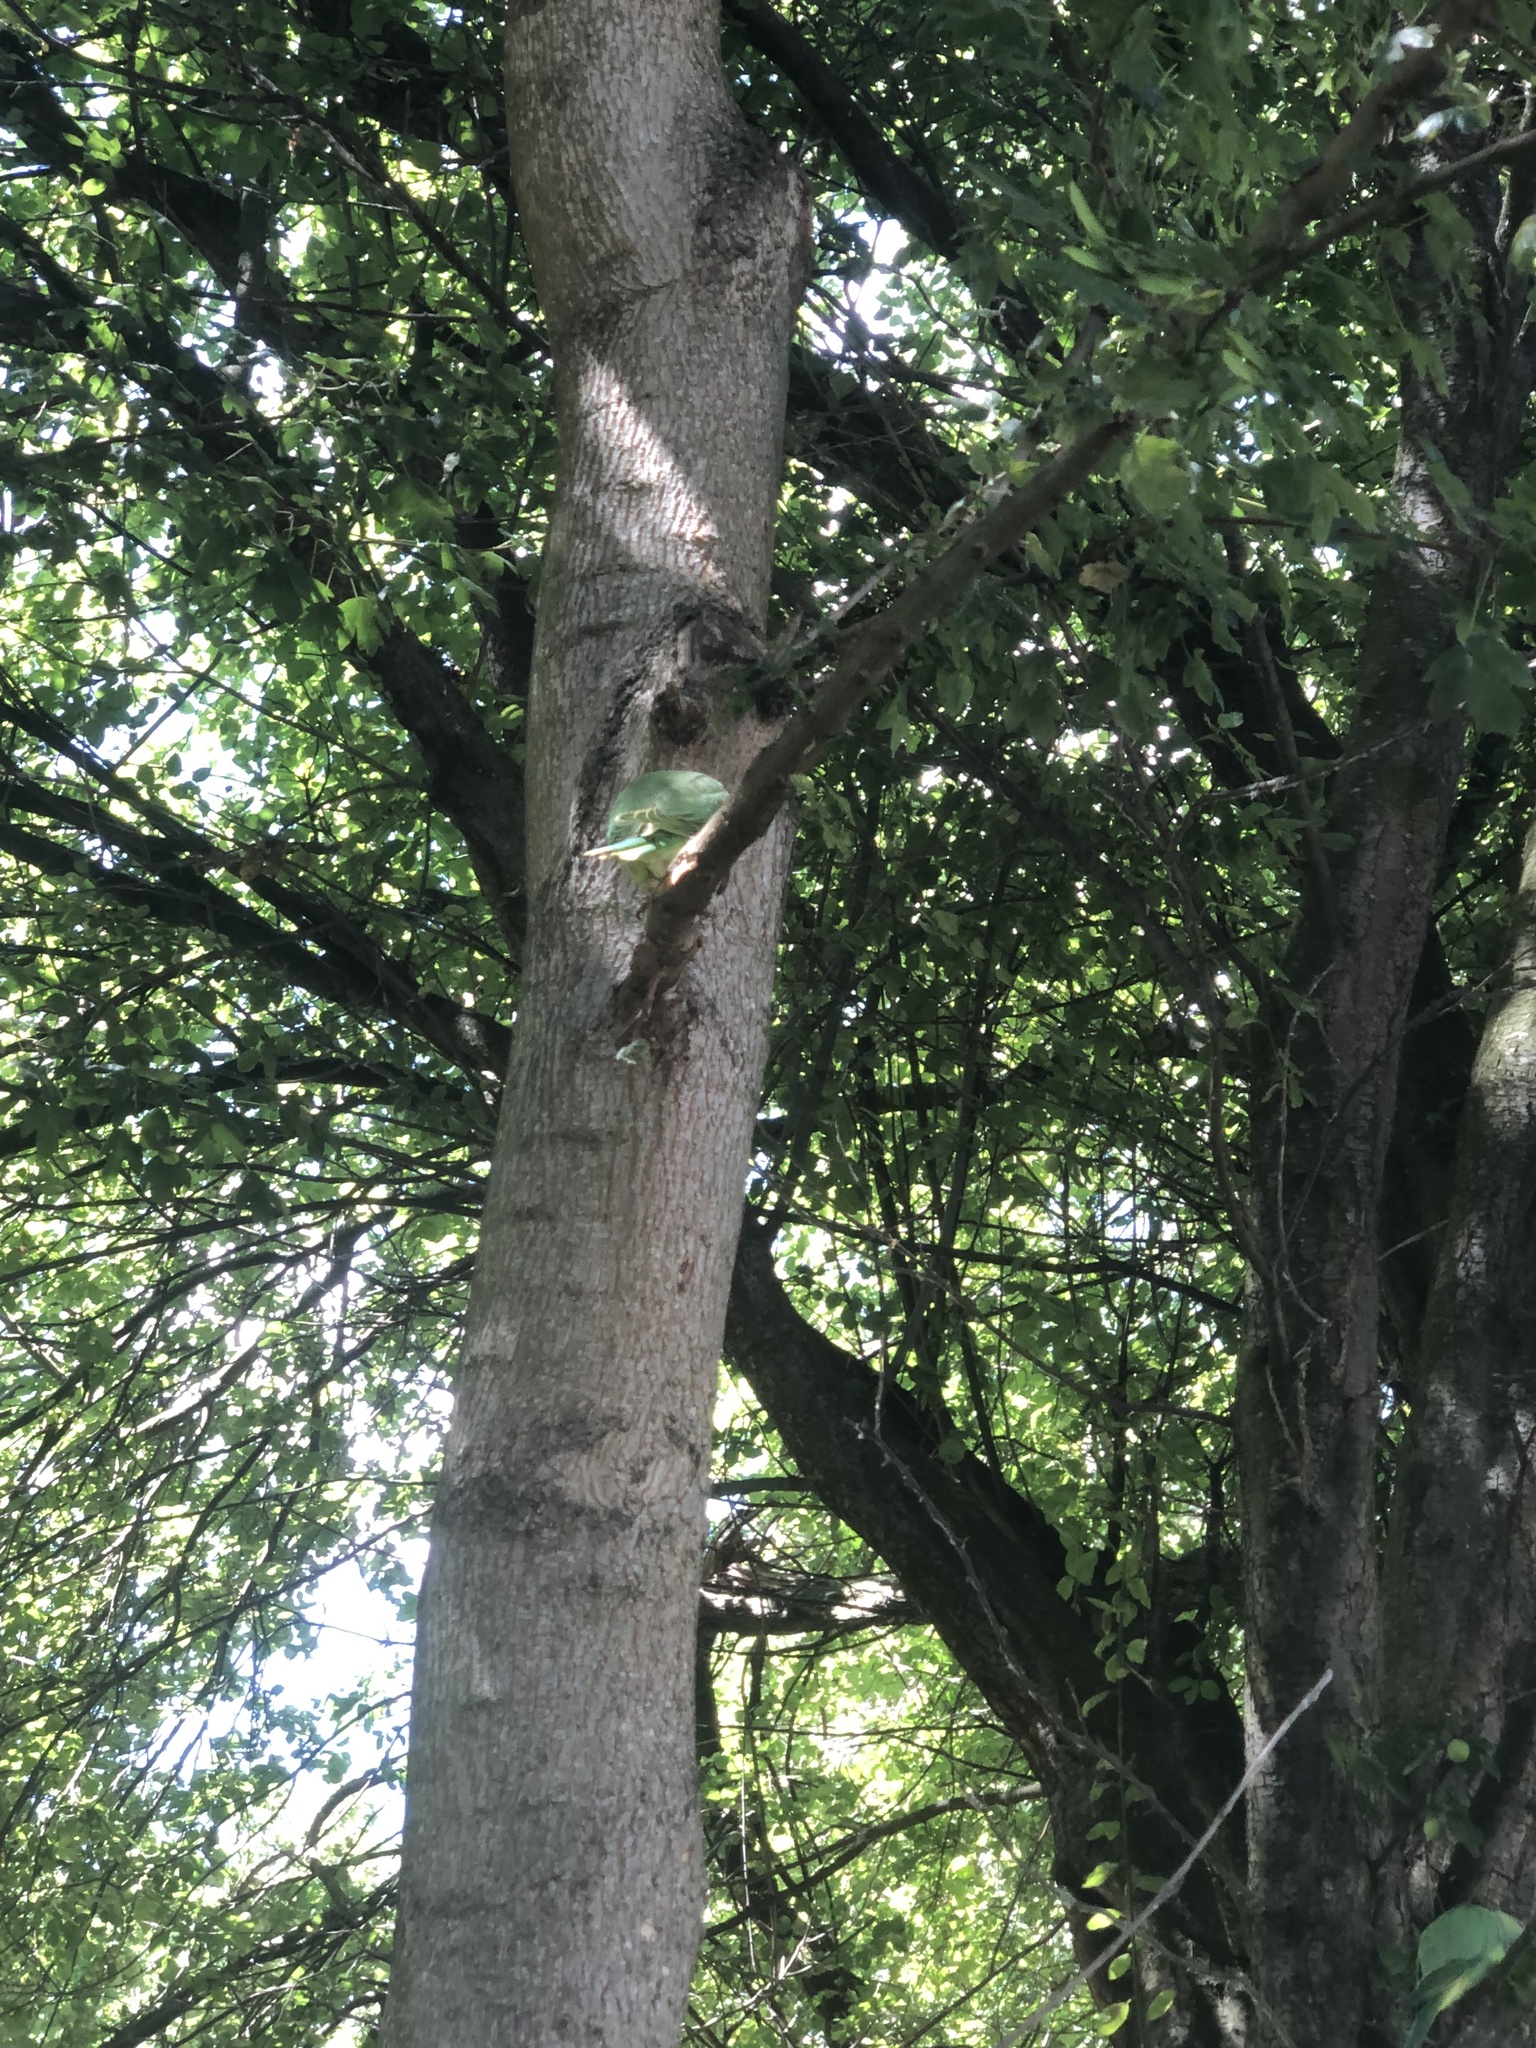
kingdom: Animalia
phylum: Chordata
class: Aves
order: Psittaciformes
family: Psittacidae
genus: Psittacula
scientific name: Psittacula krameri
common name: Rose-ringed parakeet
